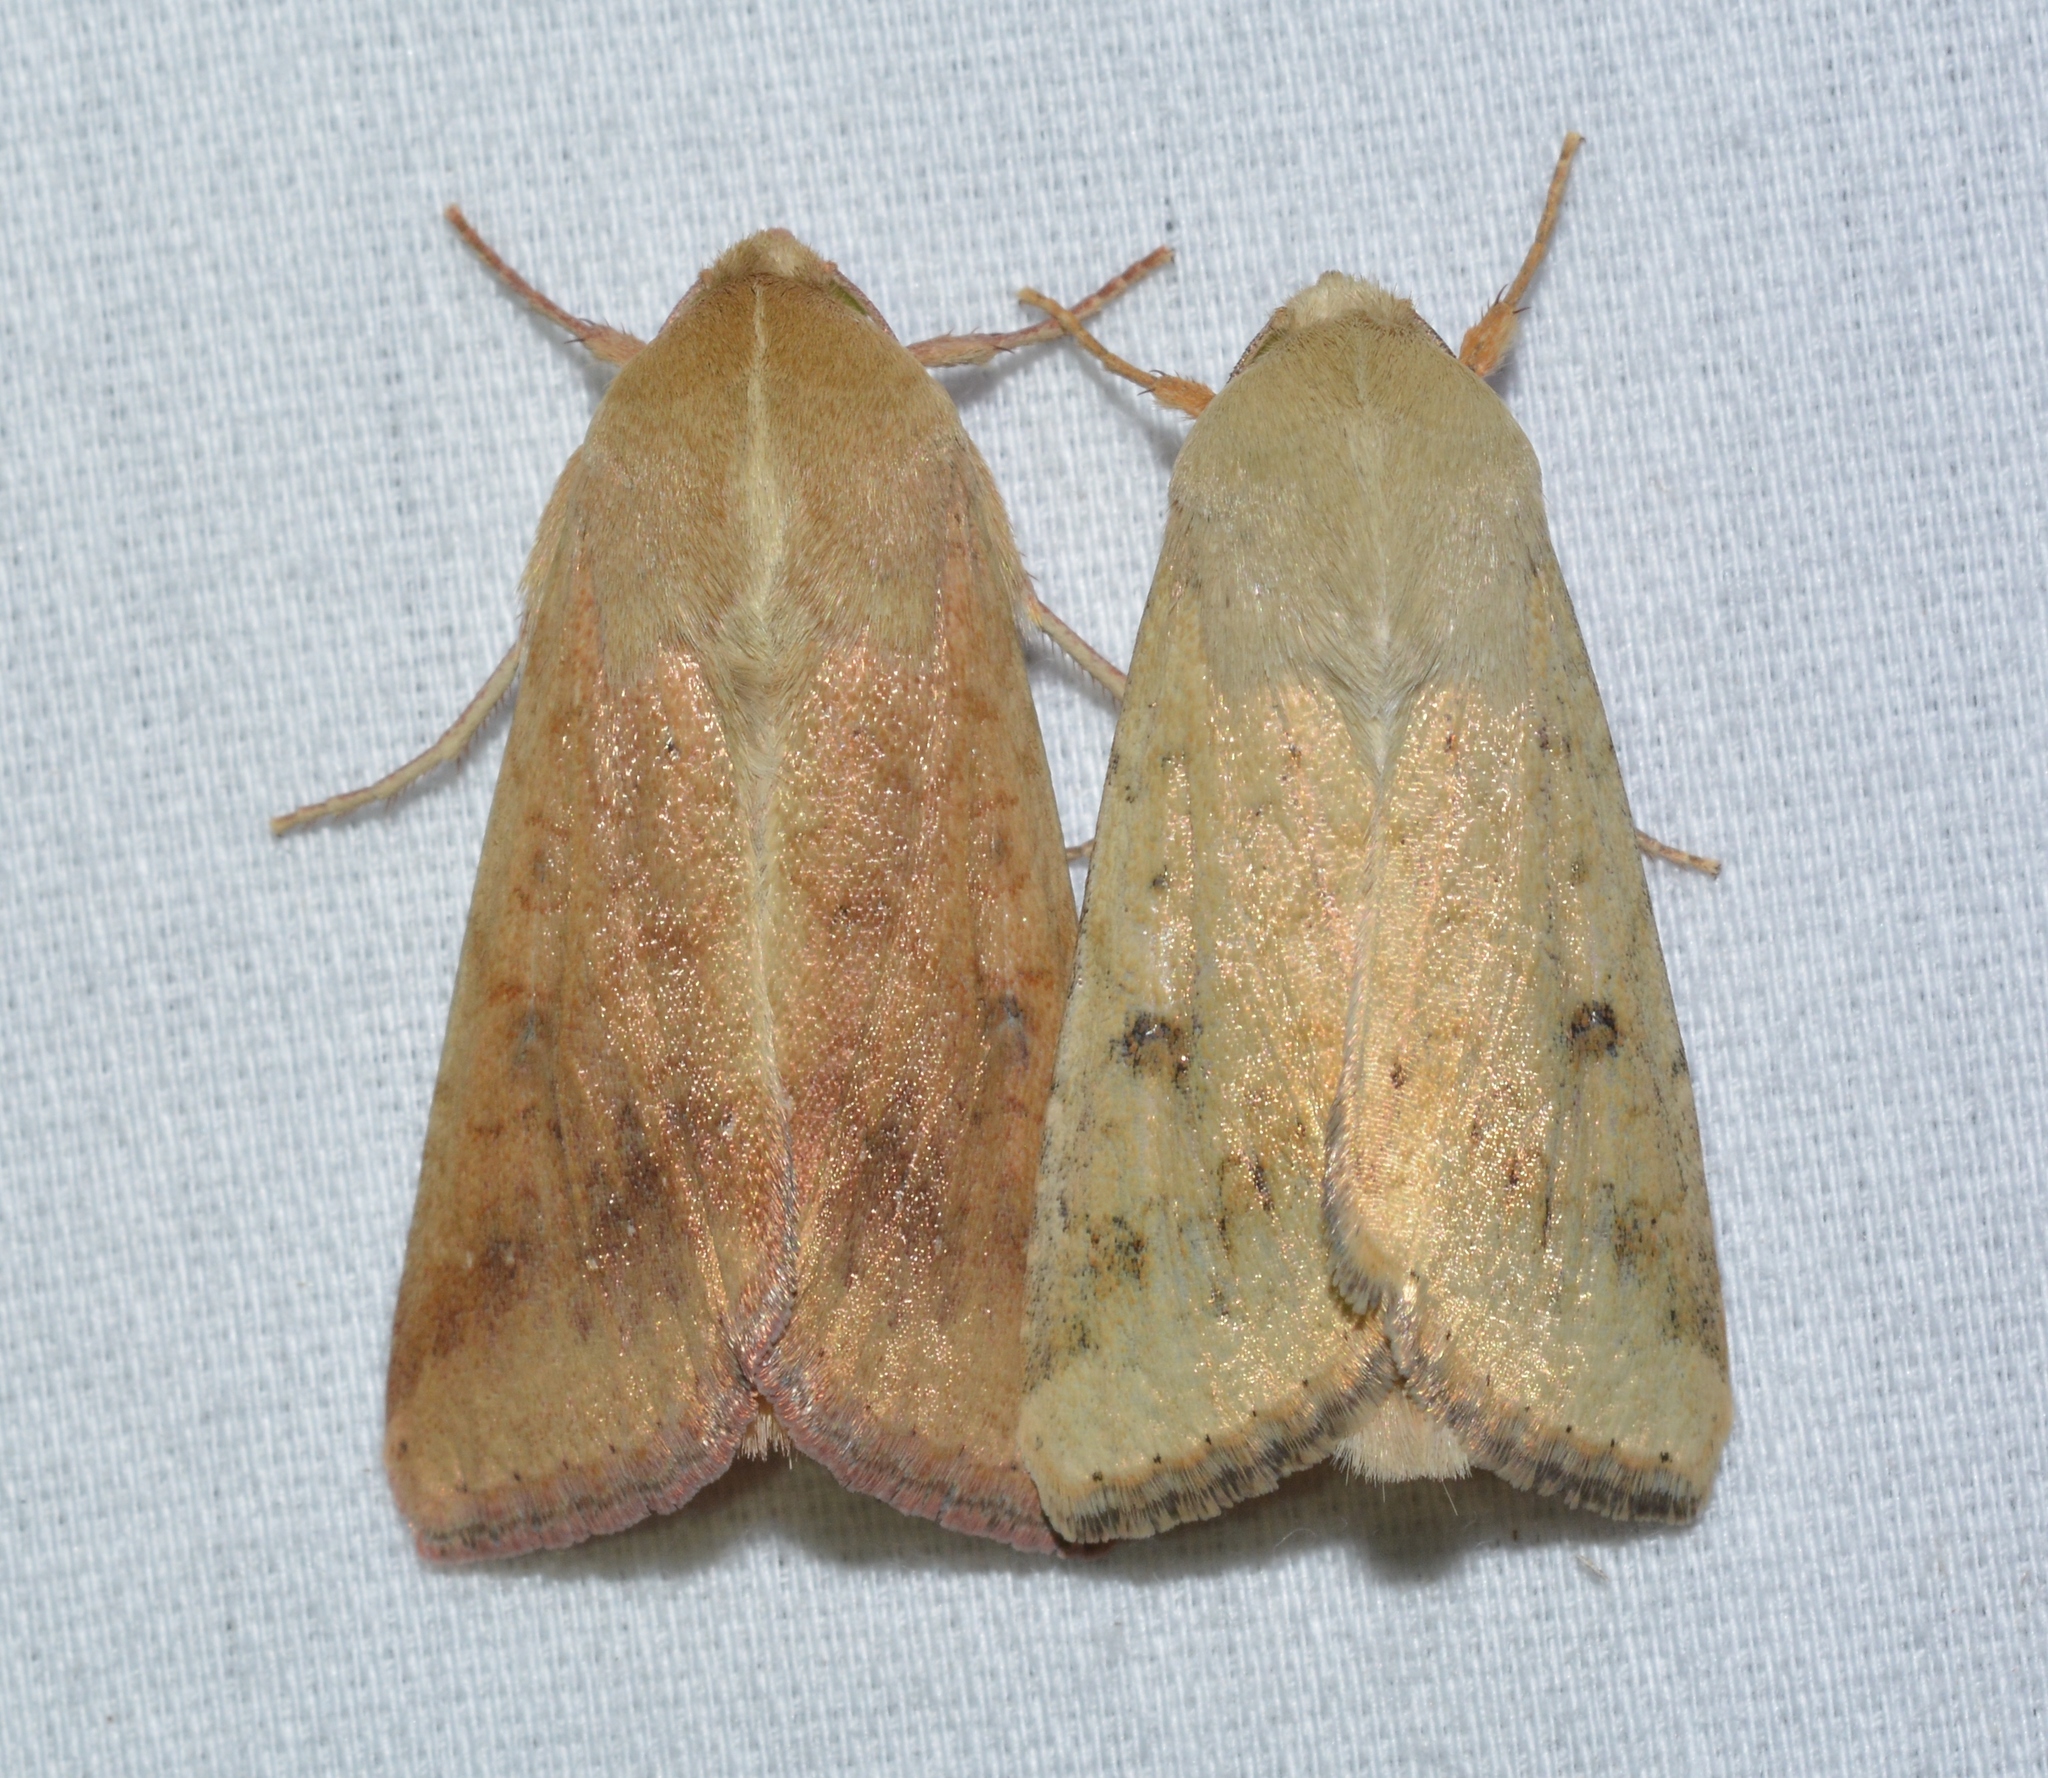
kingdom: Animalia
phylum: Arthropoda
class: Insecta
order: Lepidoptera
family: Noctuidae
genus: Helicoverpa
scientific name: Helicoverpa zea
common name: Bollworm
